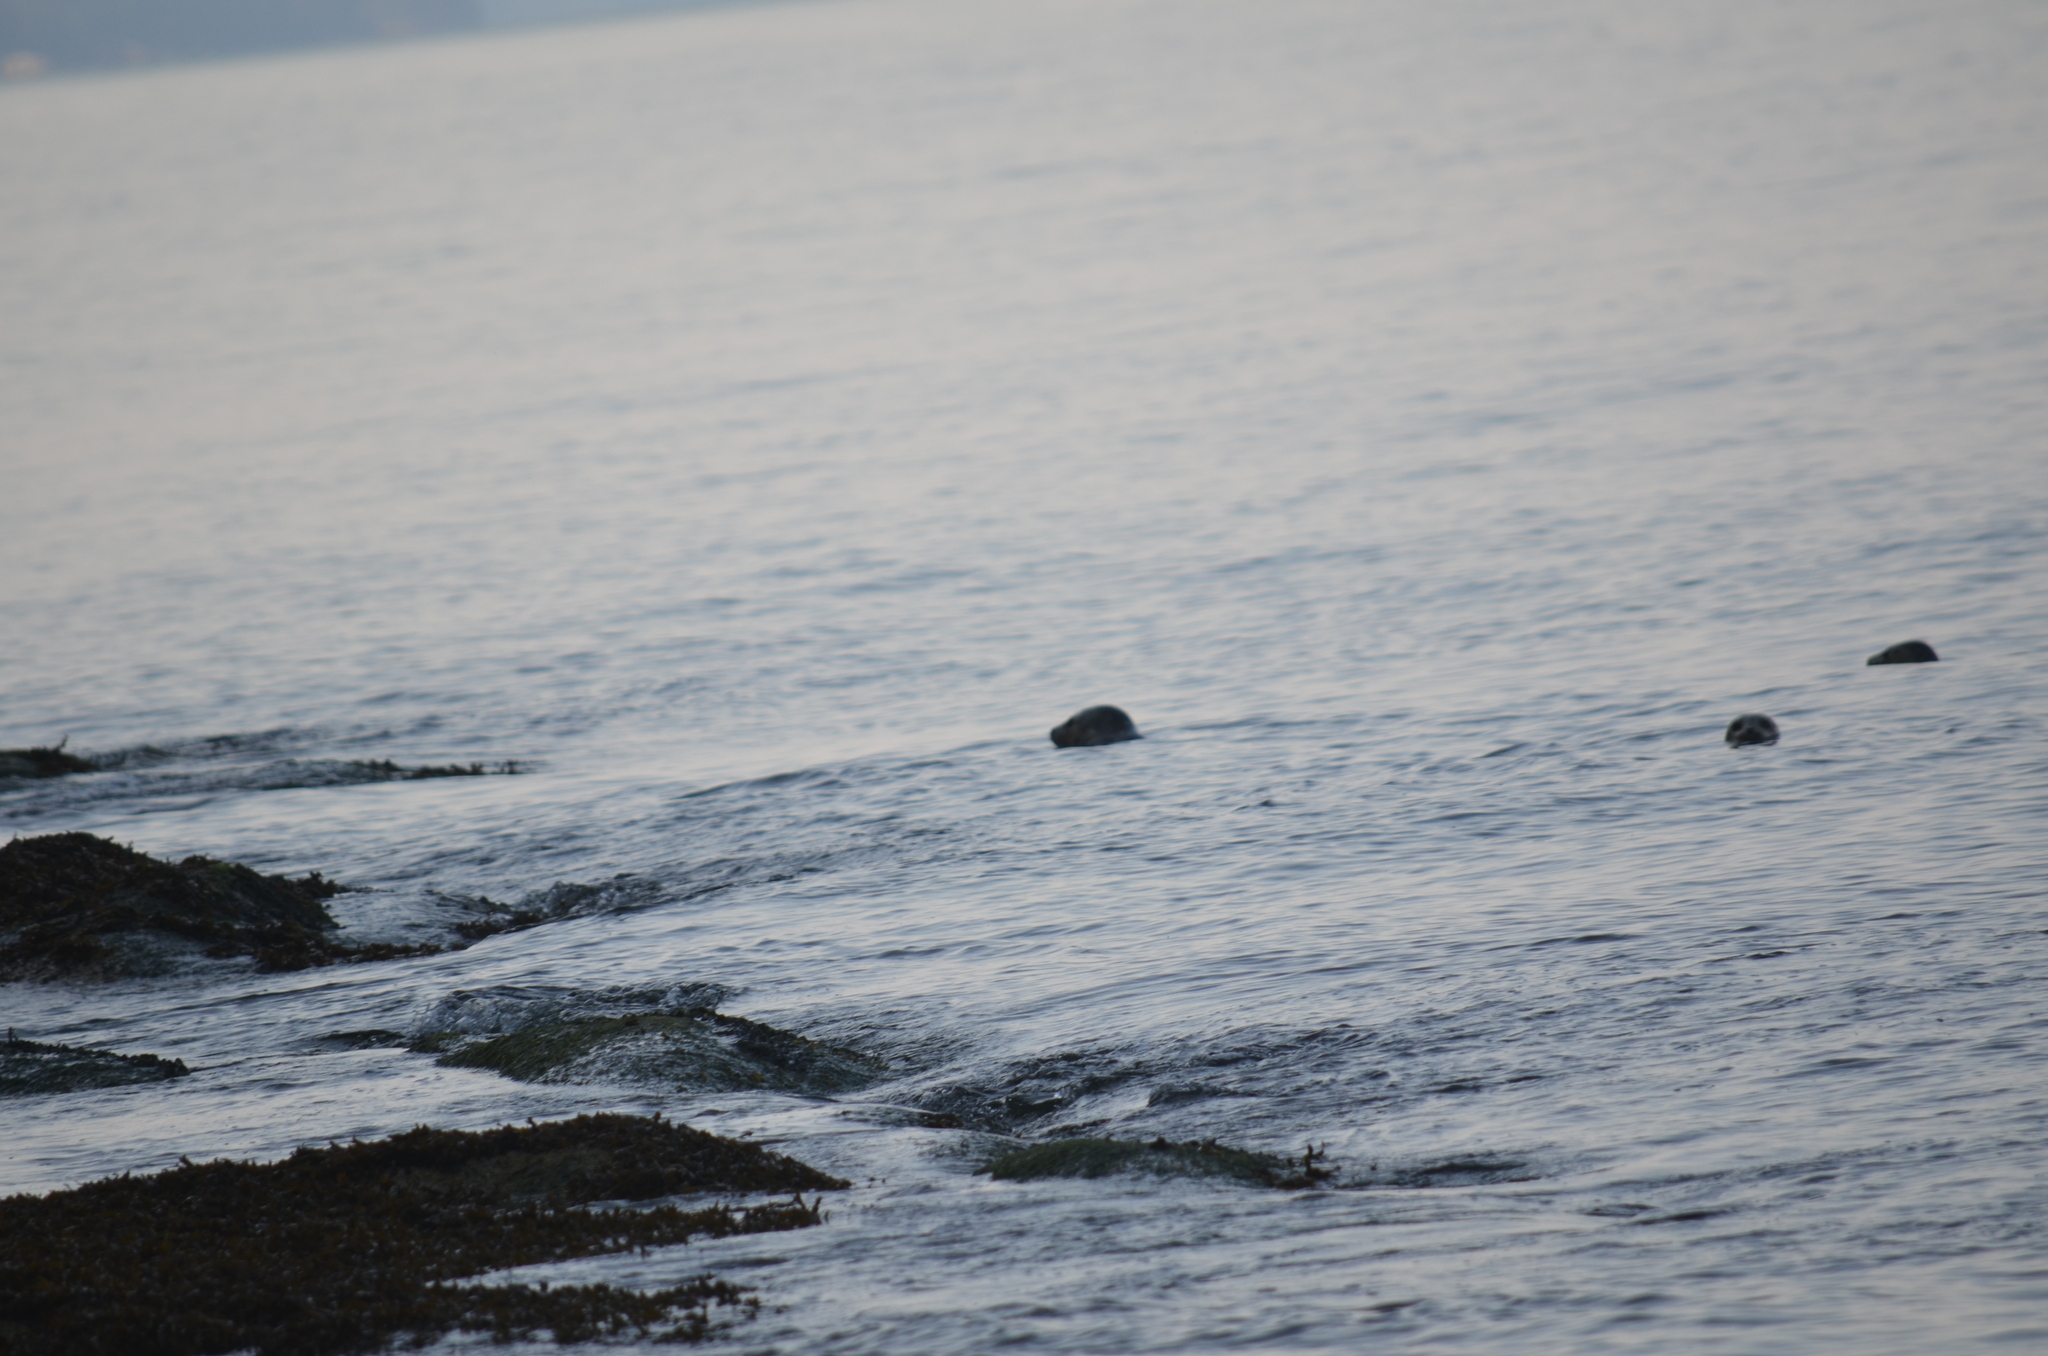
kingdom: Animalia
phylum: Chordata
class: Mammalia
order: Carnivora
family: Phocidae
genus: Phoca
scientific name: Phoca vitulina
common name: Harbor seal
